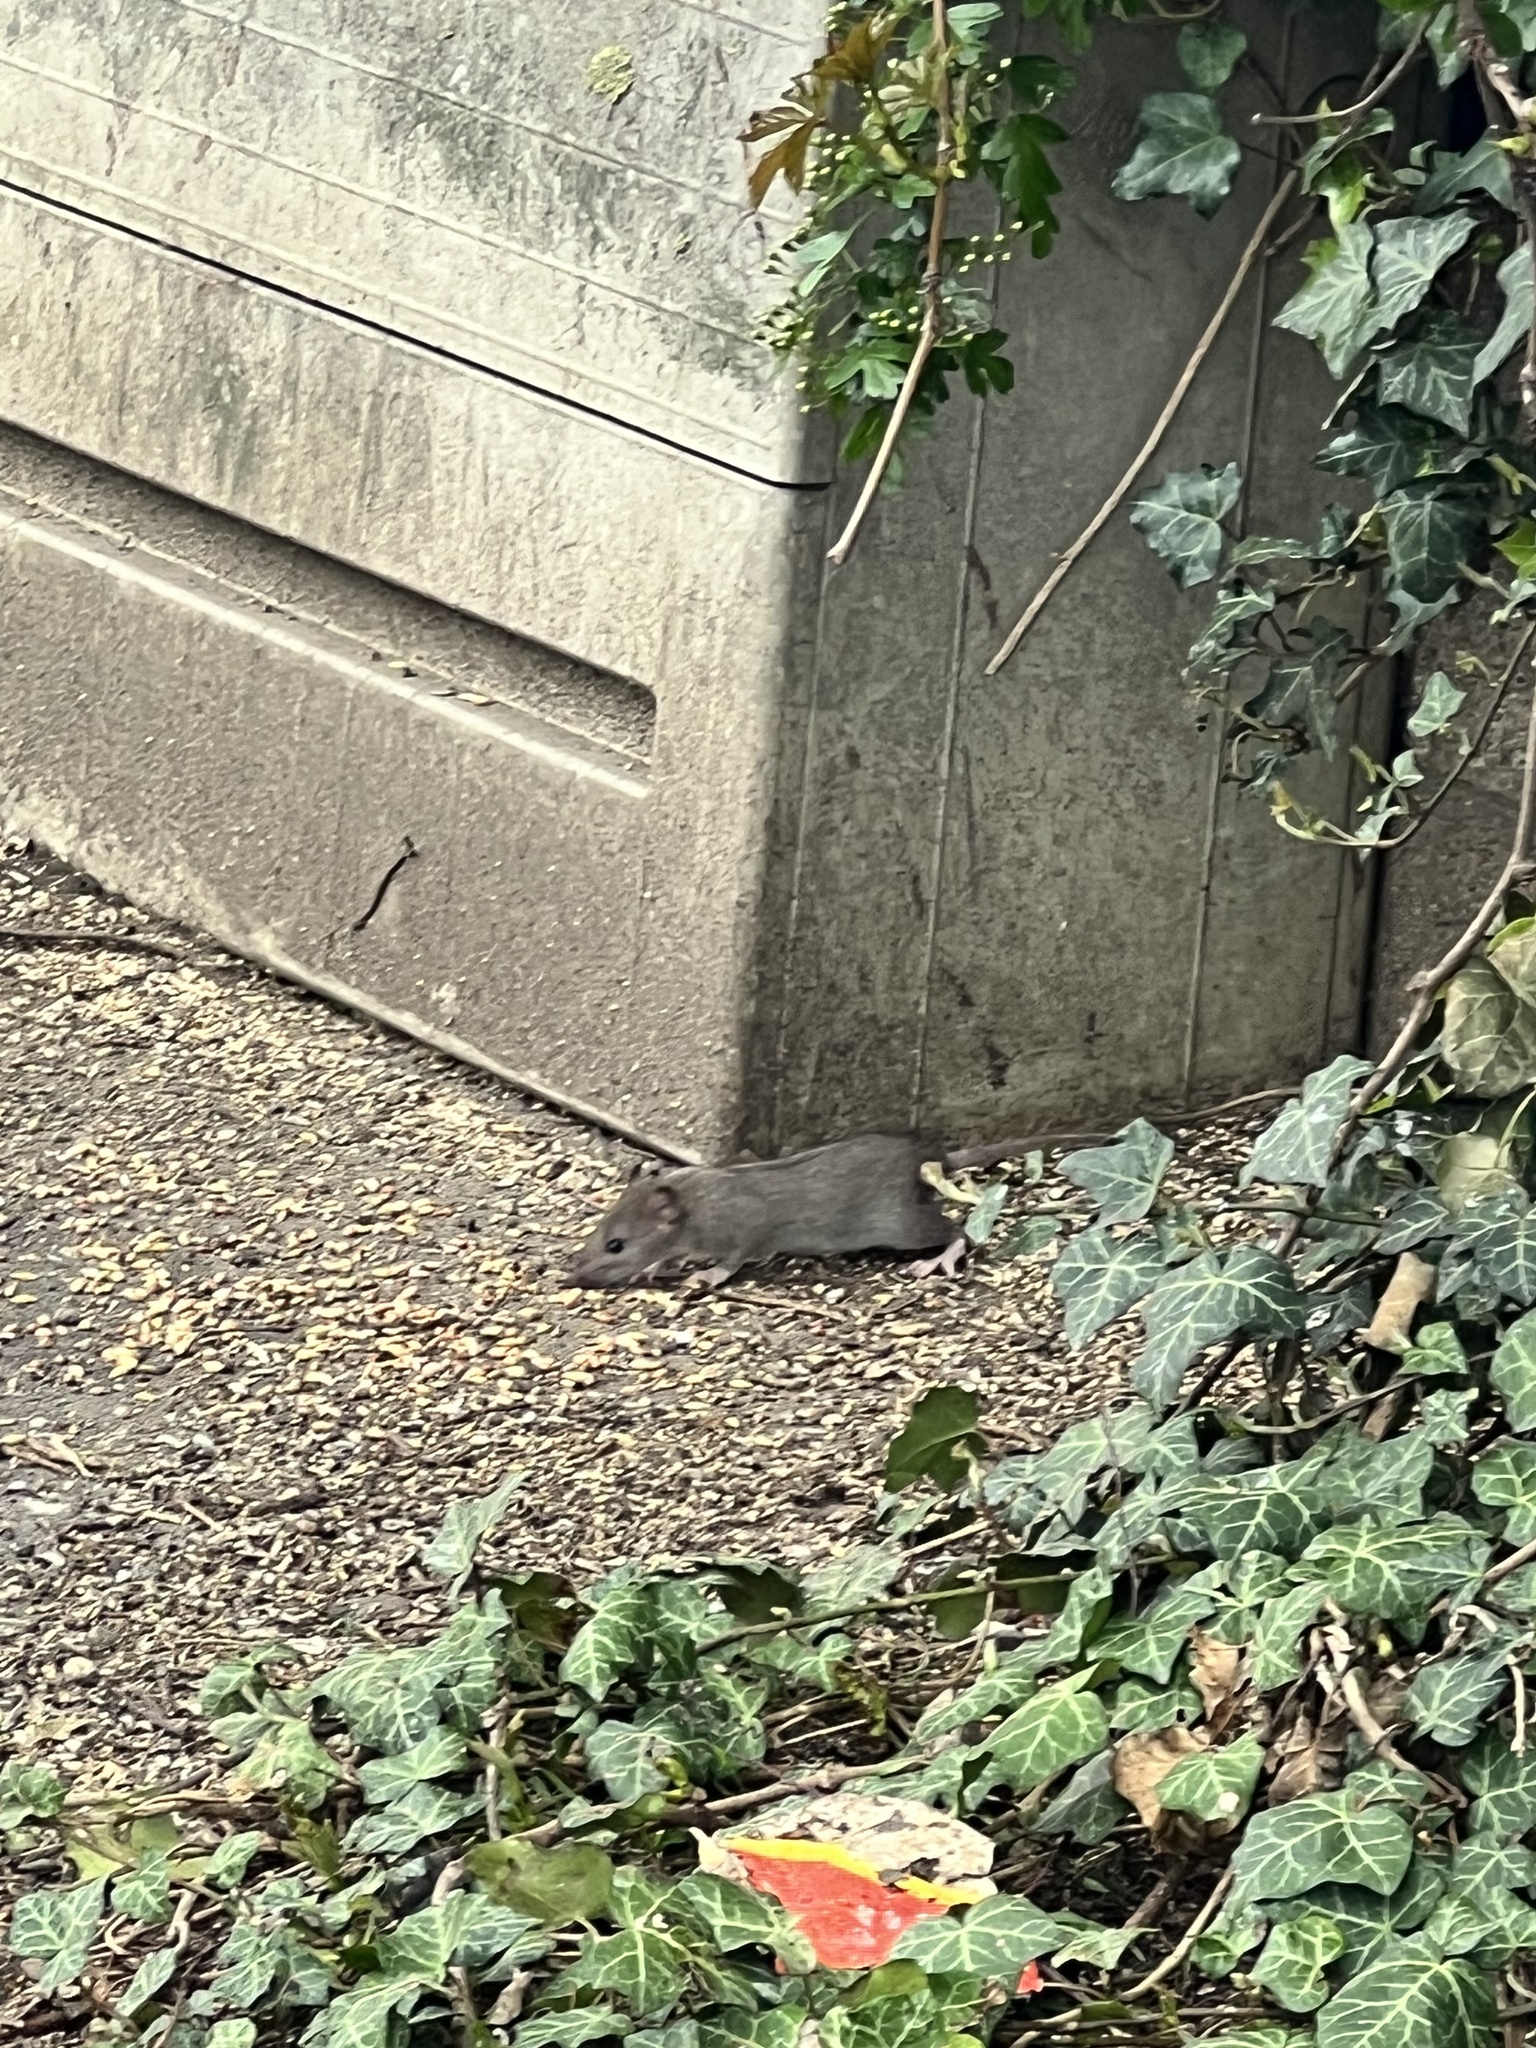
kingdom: Animalia
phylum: Chordata
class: Mammalia
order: Rodentia
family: Muridae
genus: Rattus
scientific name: Rattus norvegicus
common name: Brown rat
